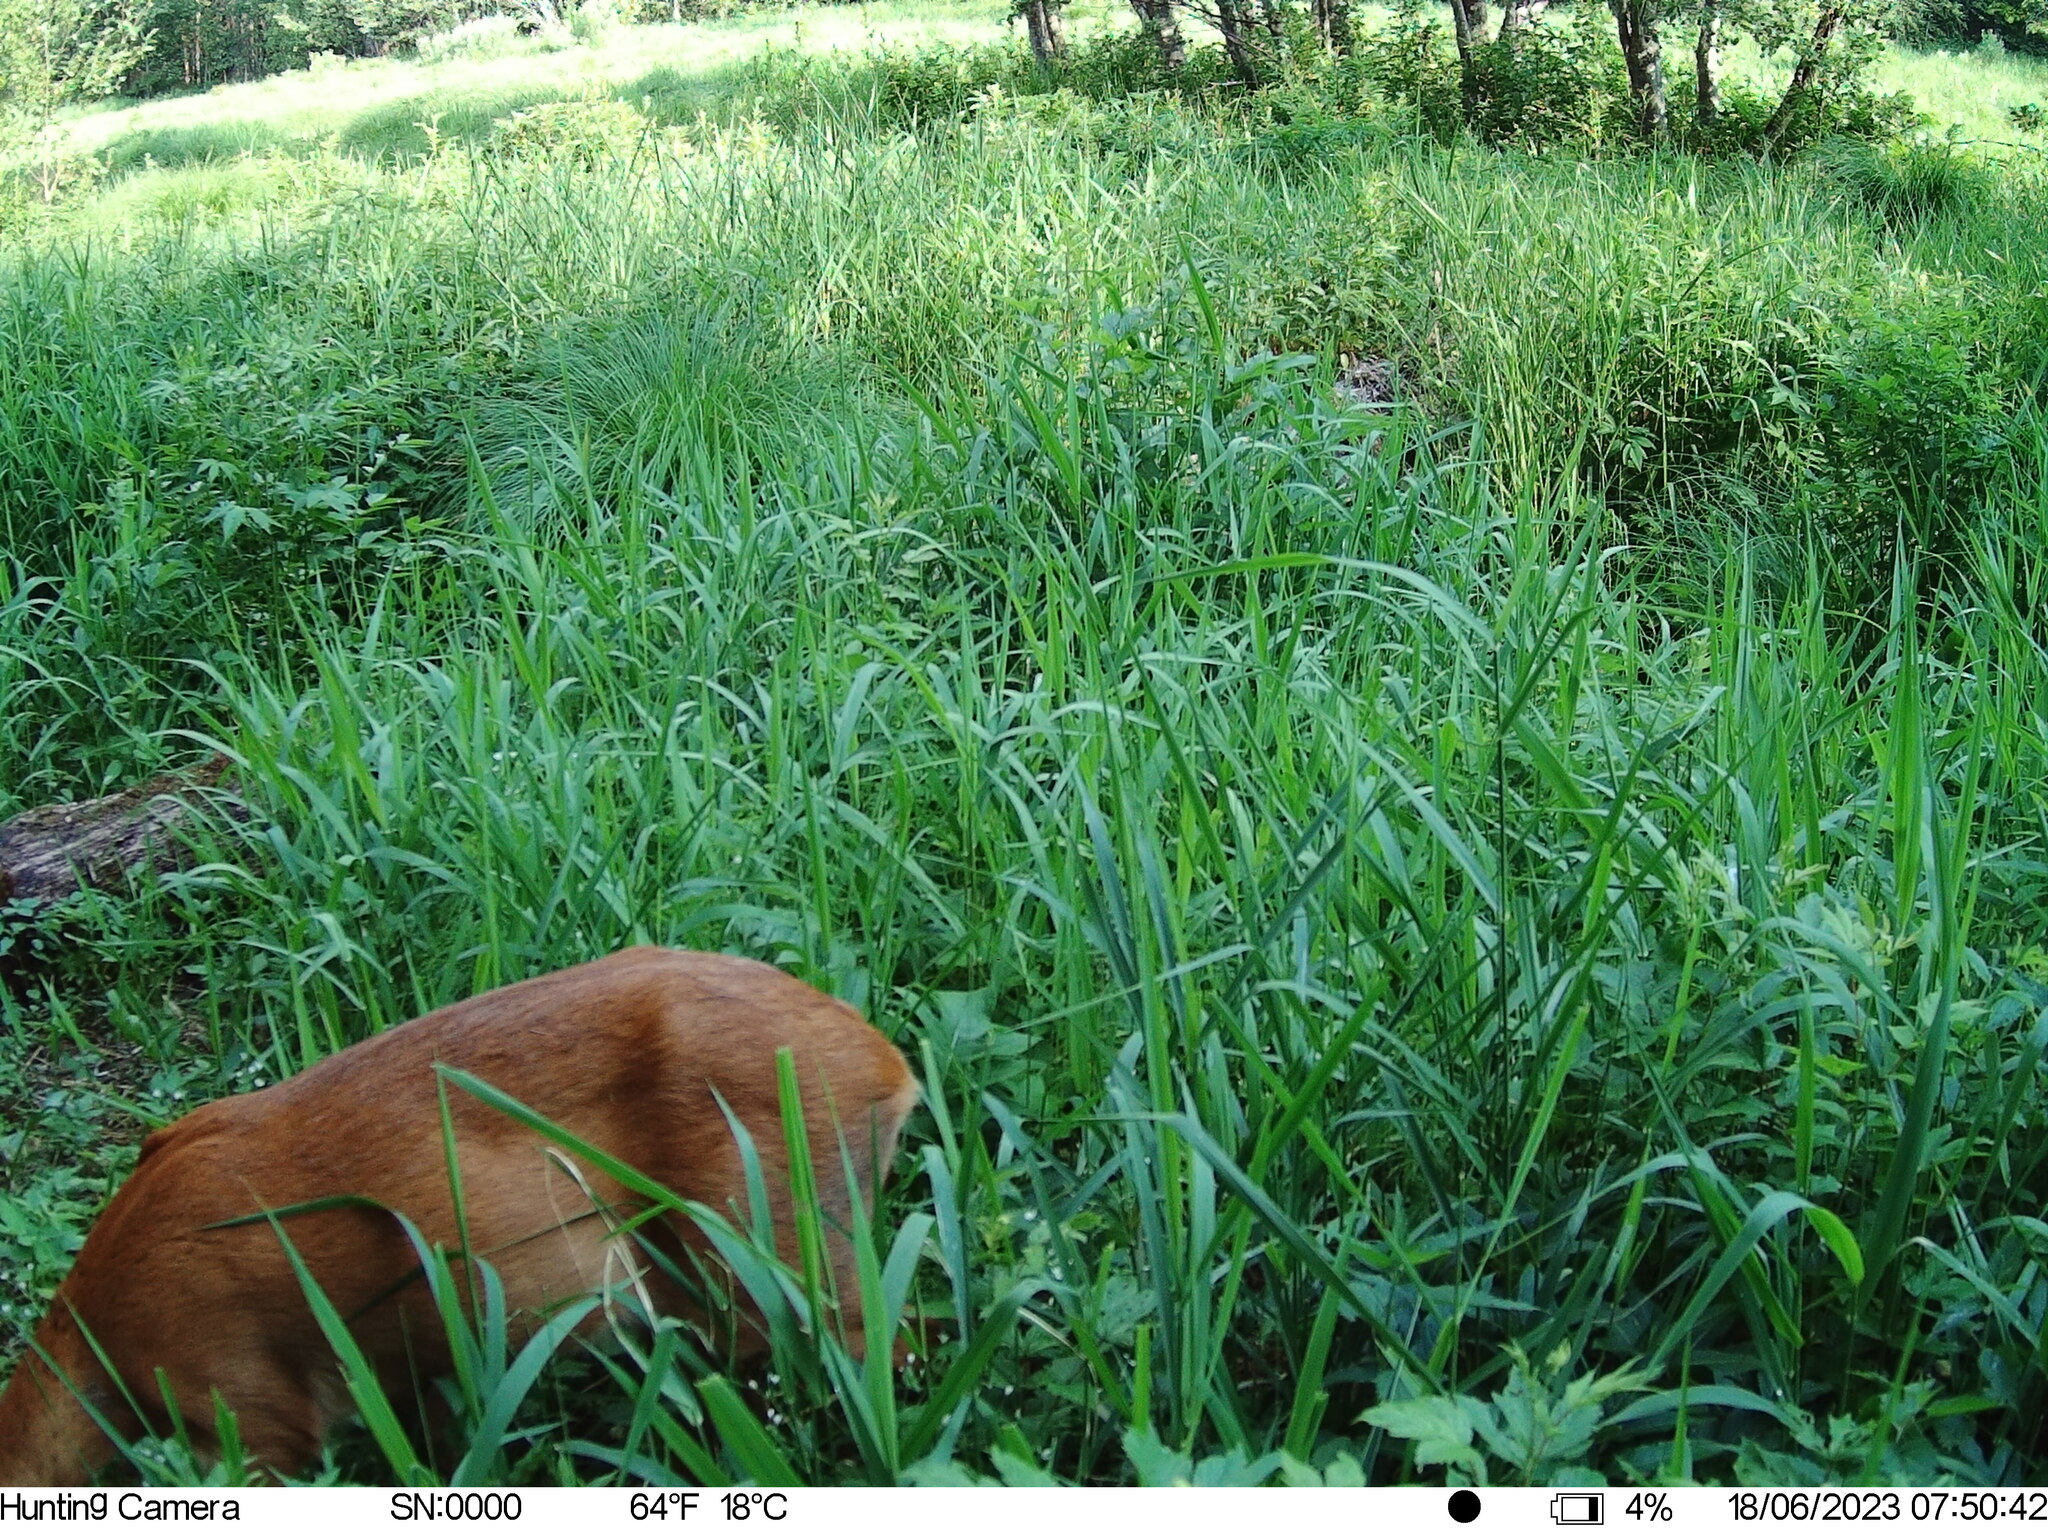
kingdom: Animalia
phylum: Chordata
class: Mammalia
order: Artiodactyla
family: Cervidae
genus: Capreolus
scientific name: Capreolus capreolus
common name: Western roe deer
